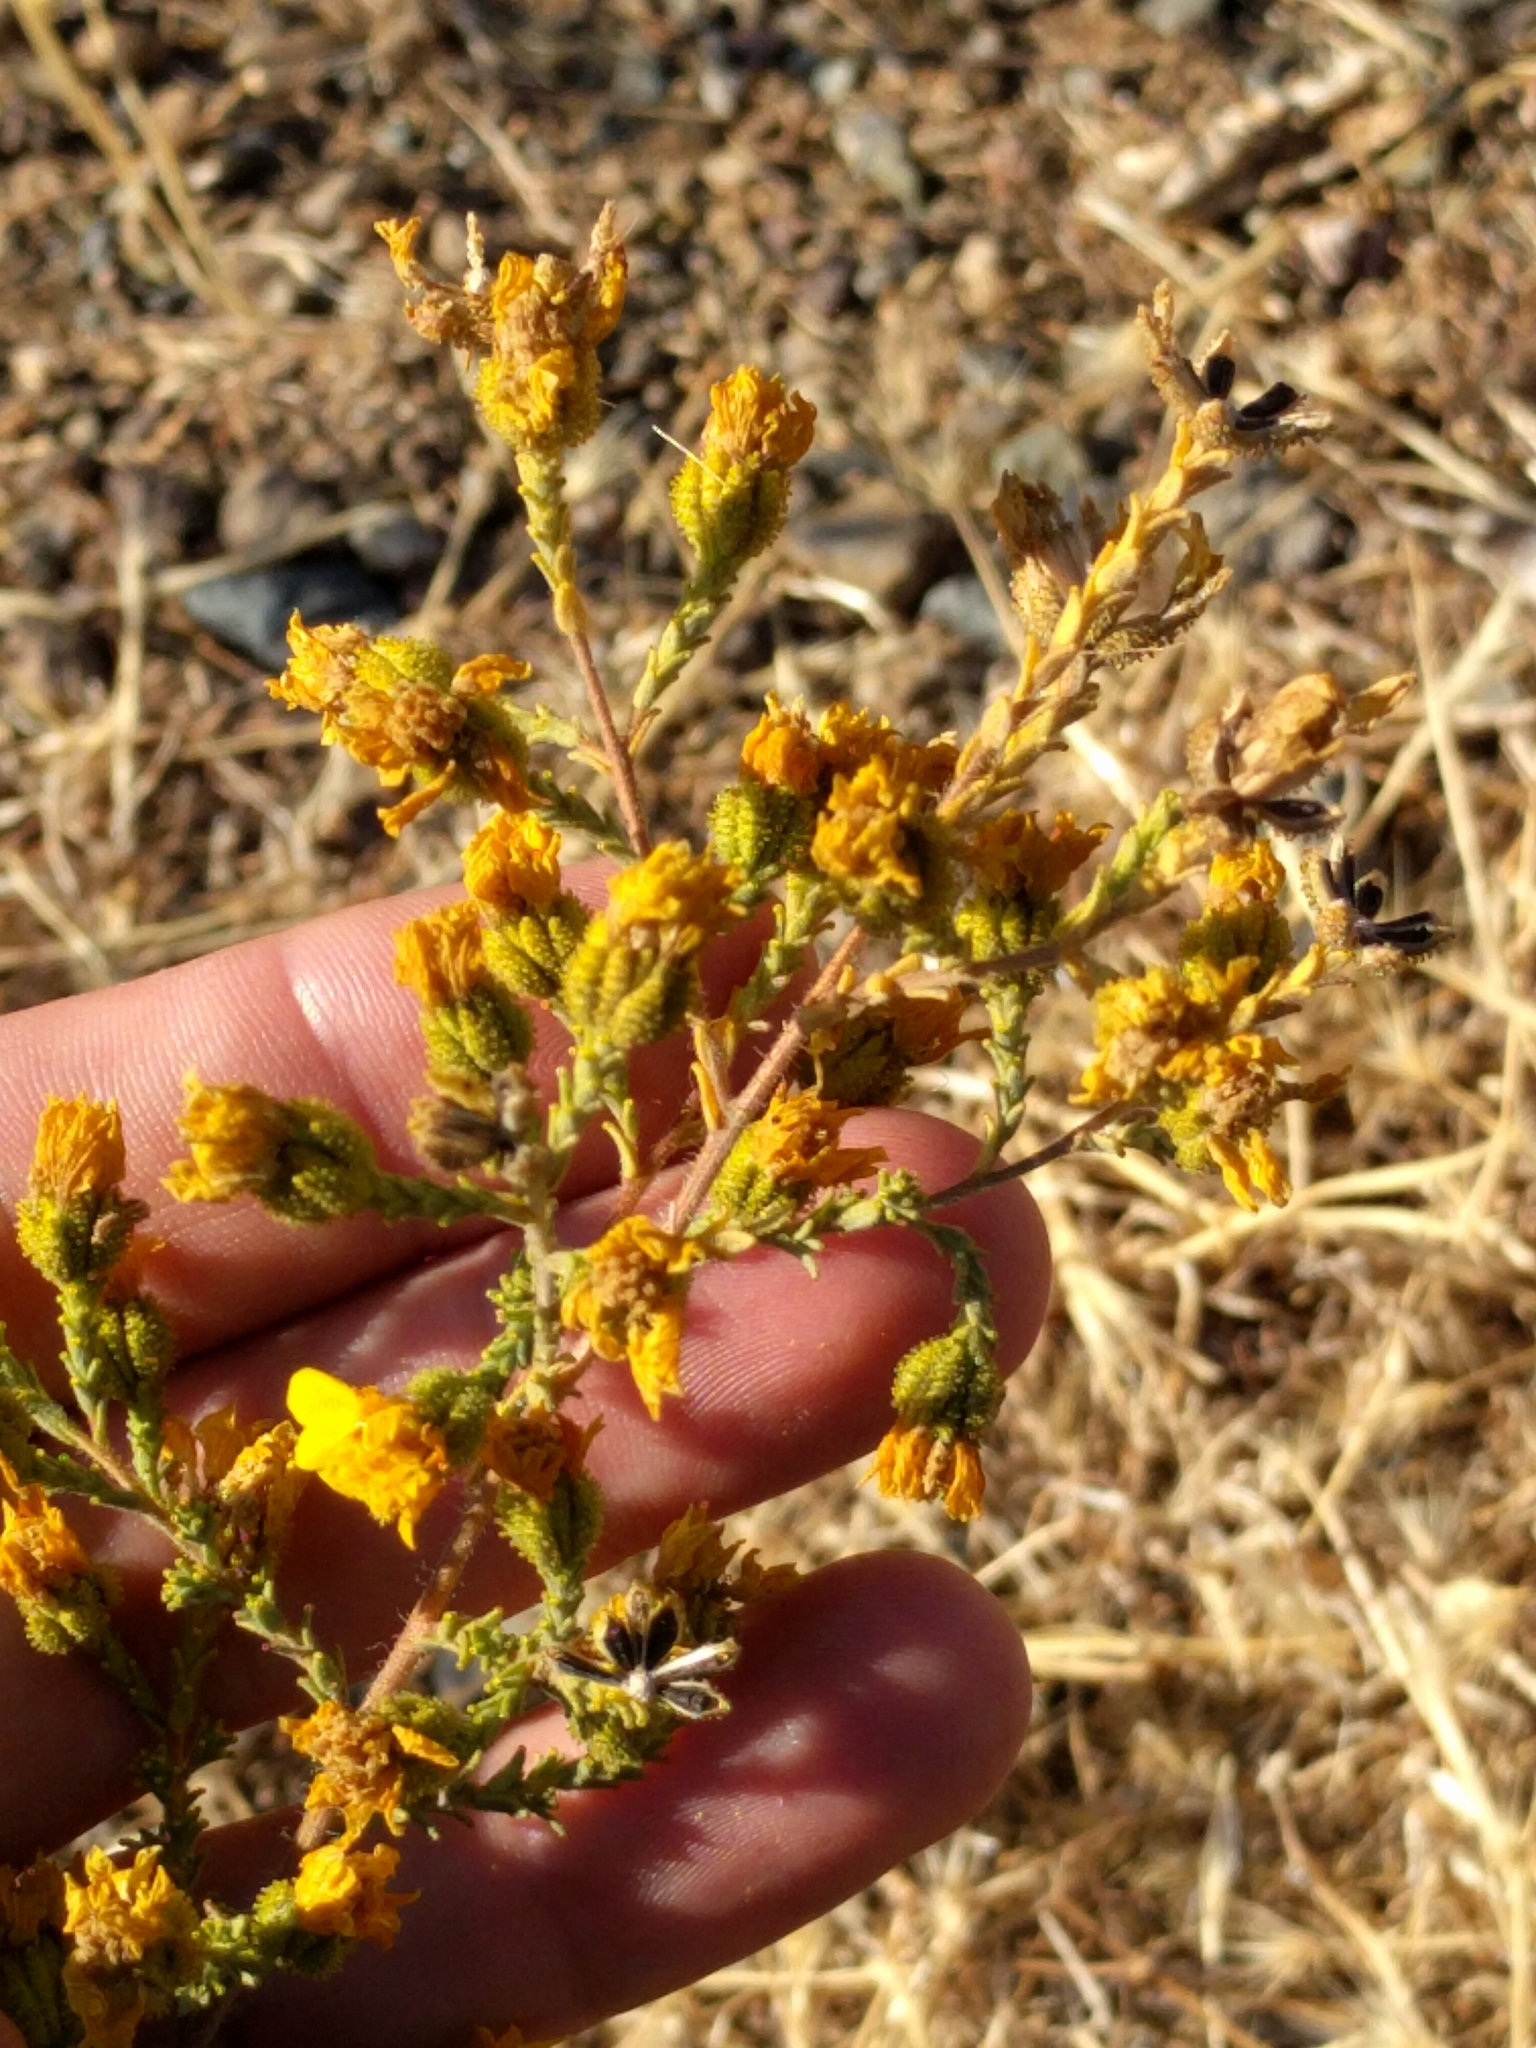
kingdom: Plantae
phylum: Tracheophyta
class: Magnoliopsida
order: Asterales
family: Asteraceae
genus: Holocarpha
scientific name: Holocarpha heermannii
